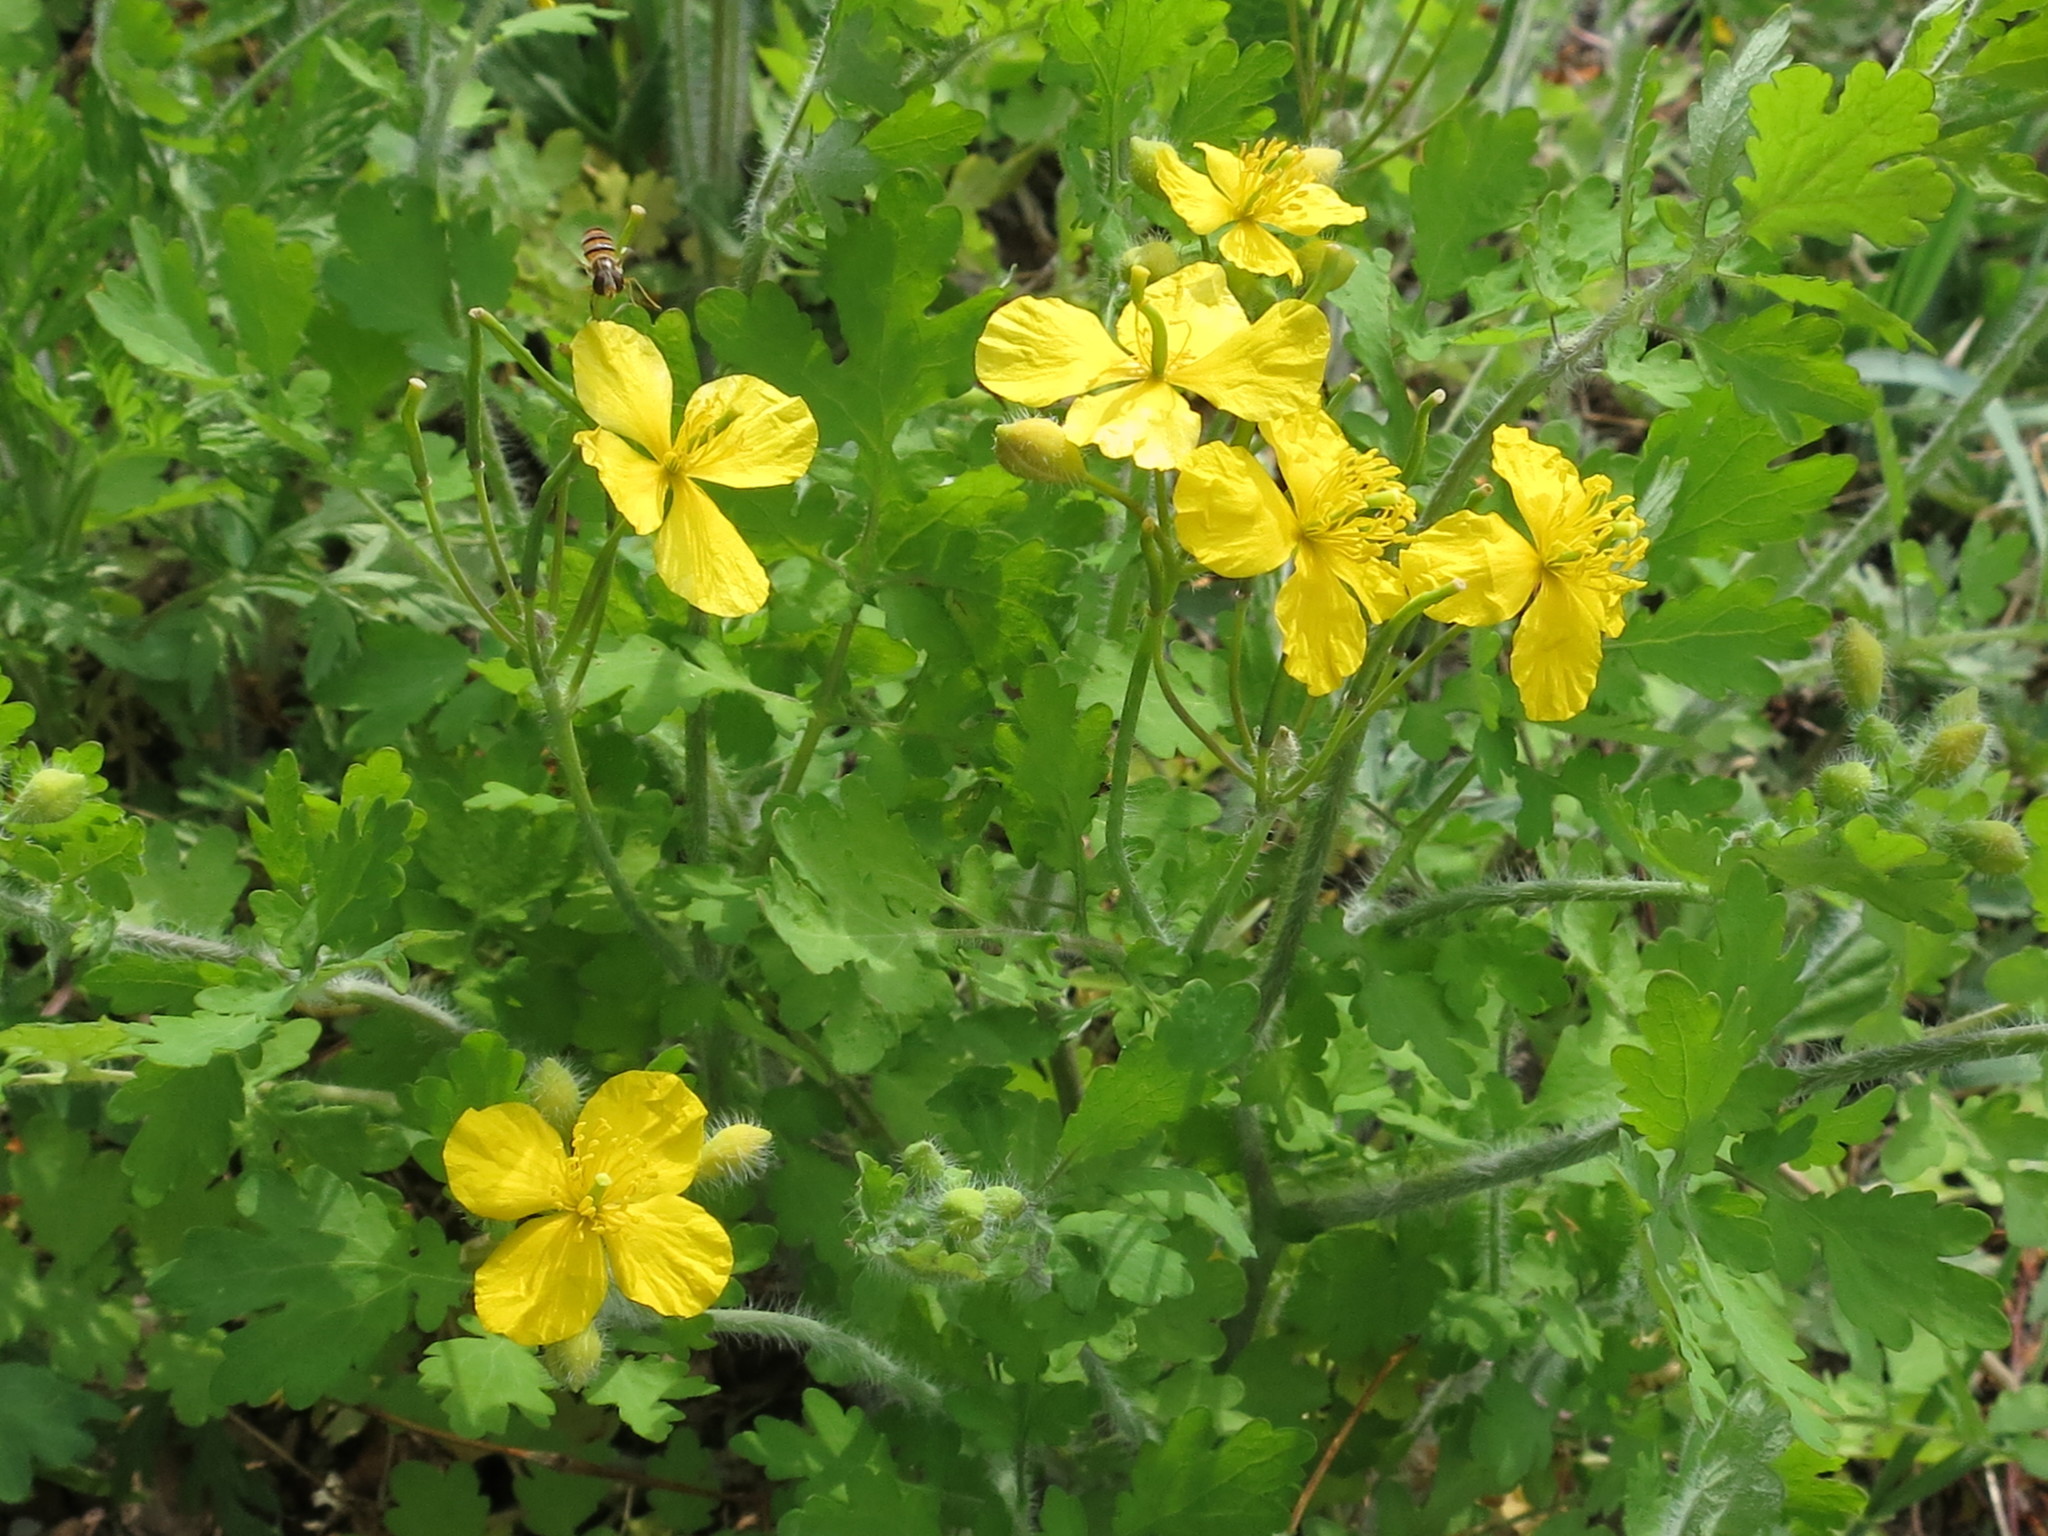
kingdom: Plantae
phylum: Tracheophyta
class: Magnoliopsida
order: Ranunculales
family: Papaveraceae
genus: Chelidonium
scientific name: Chelidonium majus
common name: Greater celandine
